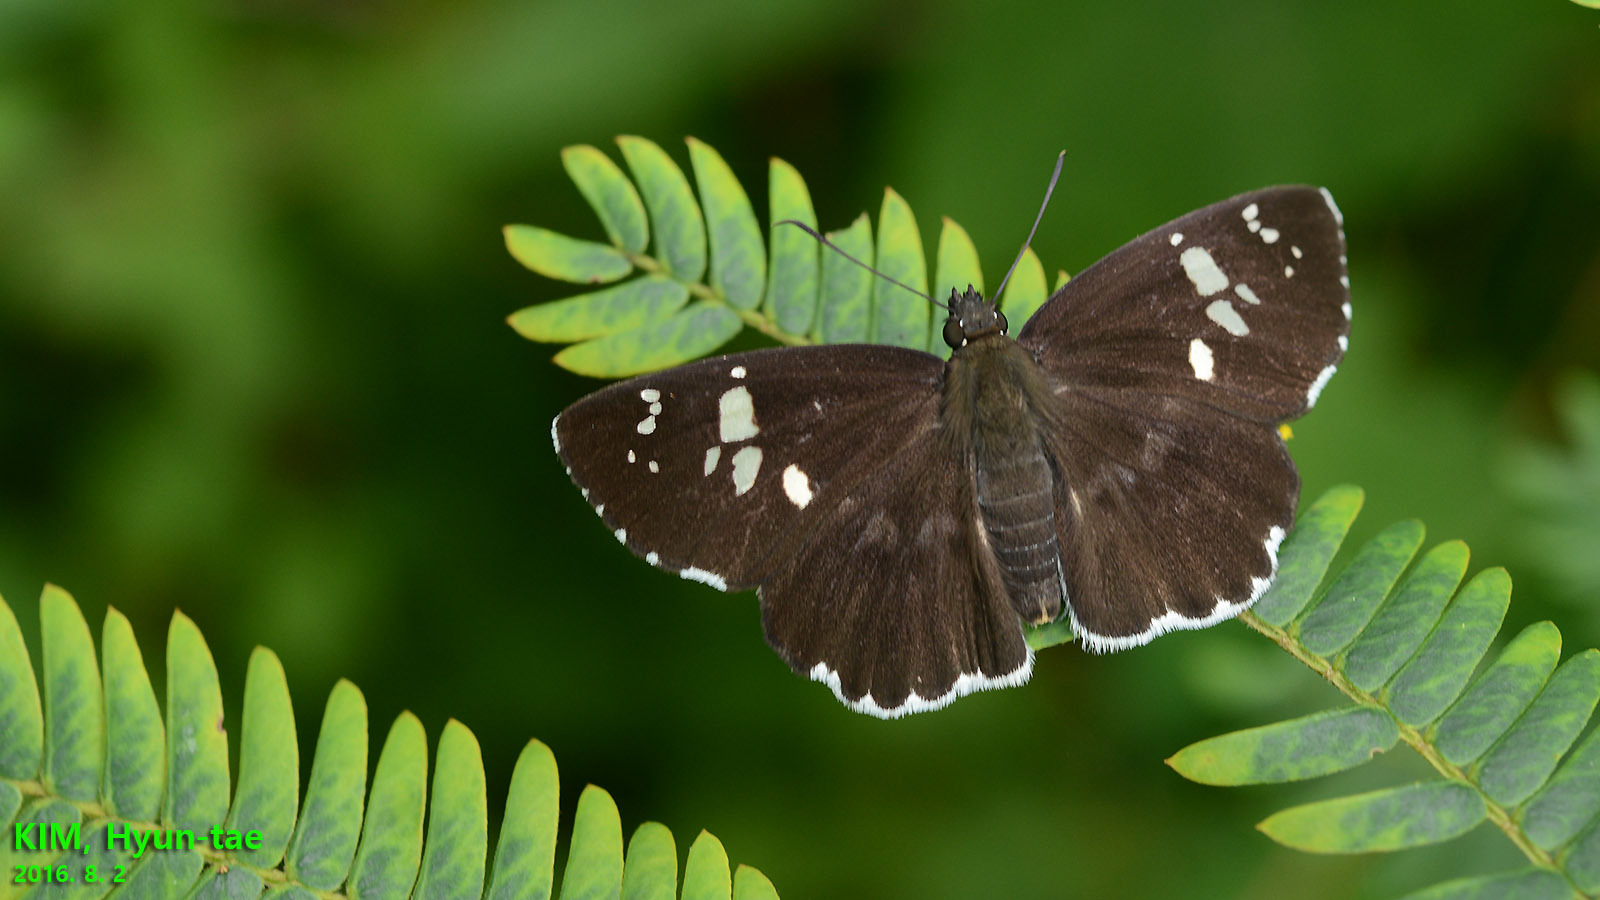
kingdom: Animalia
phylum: Arthropoda
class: Insecta
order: Lepidoptera
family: Hesperiidae
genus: Daimio
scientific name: Daimio tethys
